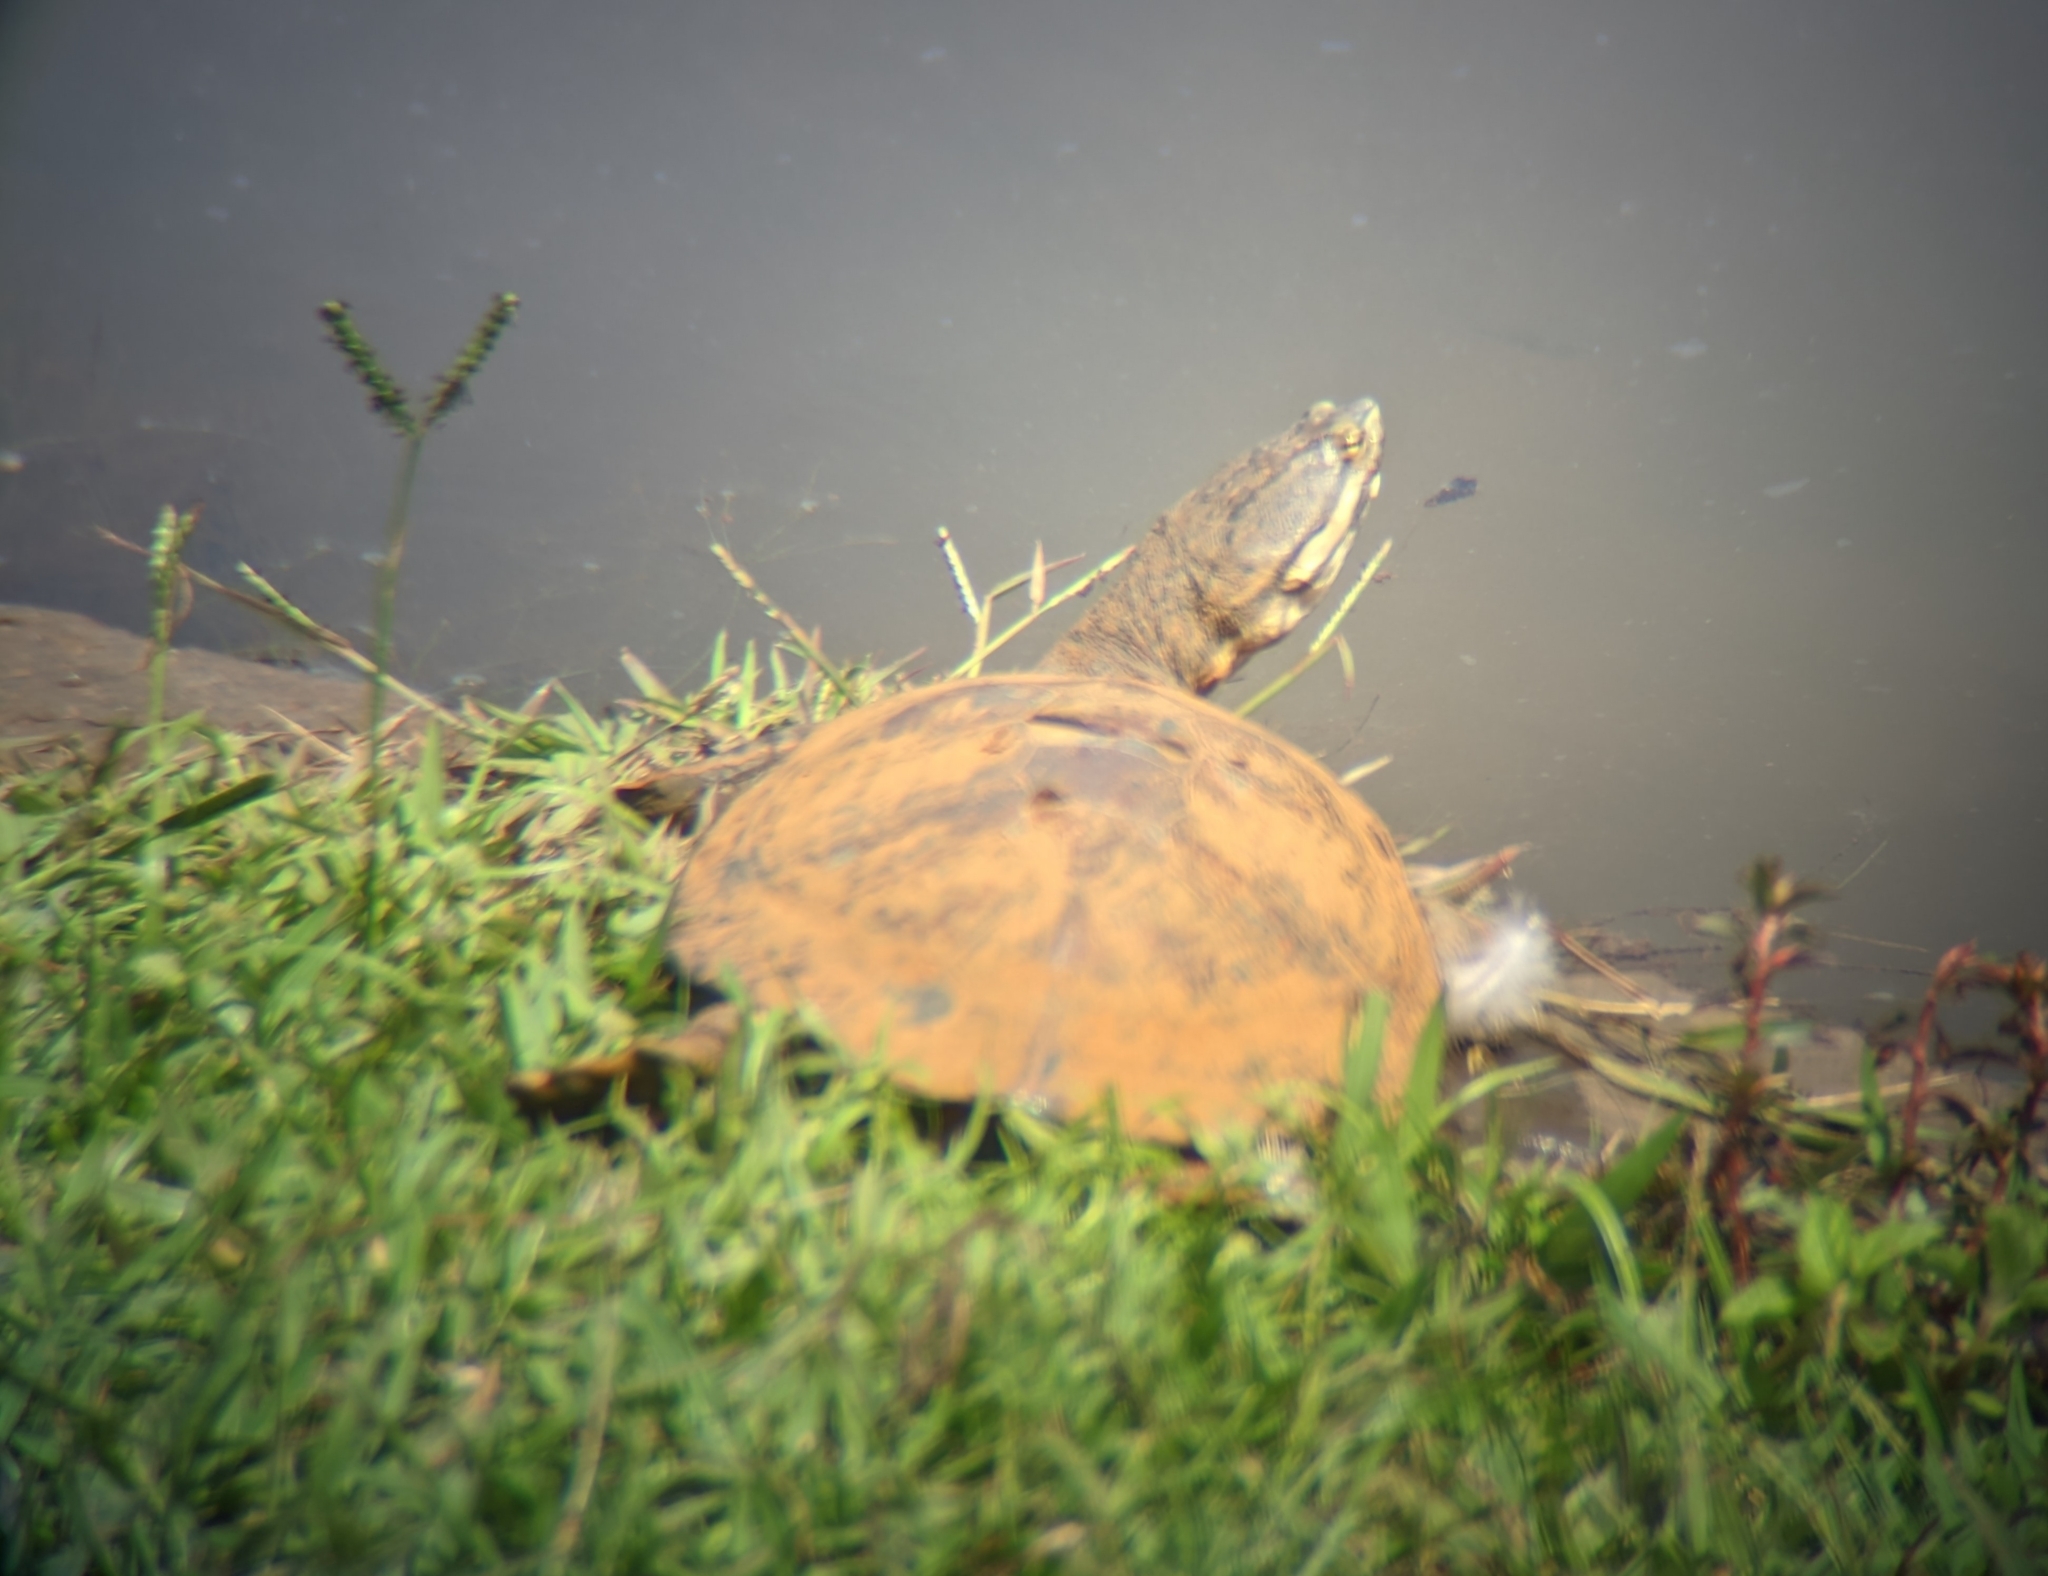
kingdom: Animalia
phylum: Chordata
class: Testudines
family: Chelidae
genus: Phrynops
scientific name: Phrynops geoffroanus
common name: Side-necked turtle of geoffroy
